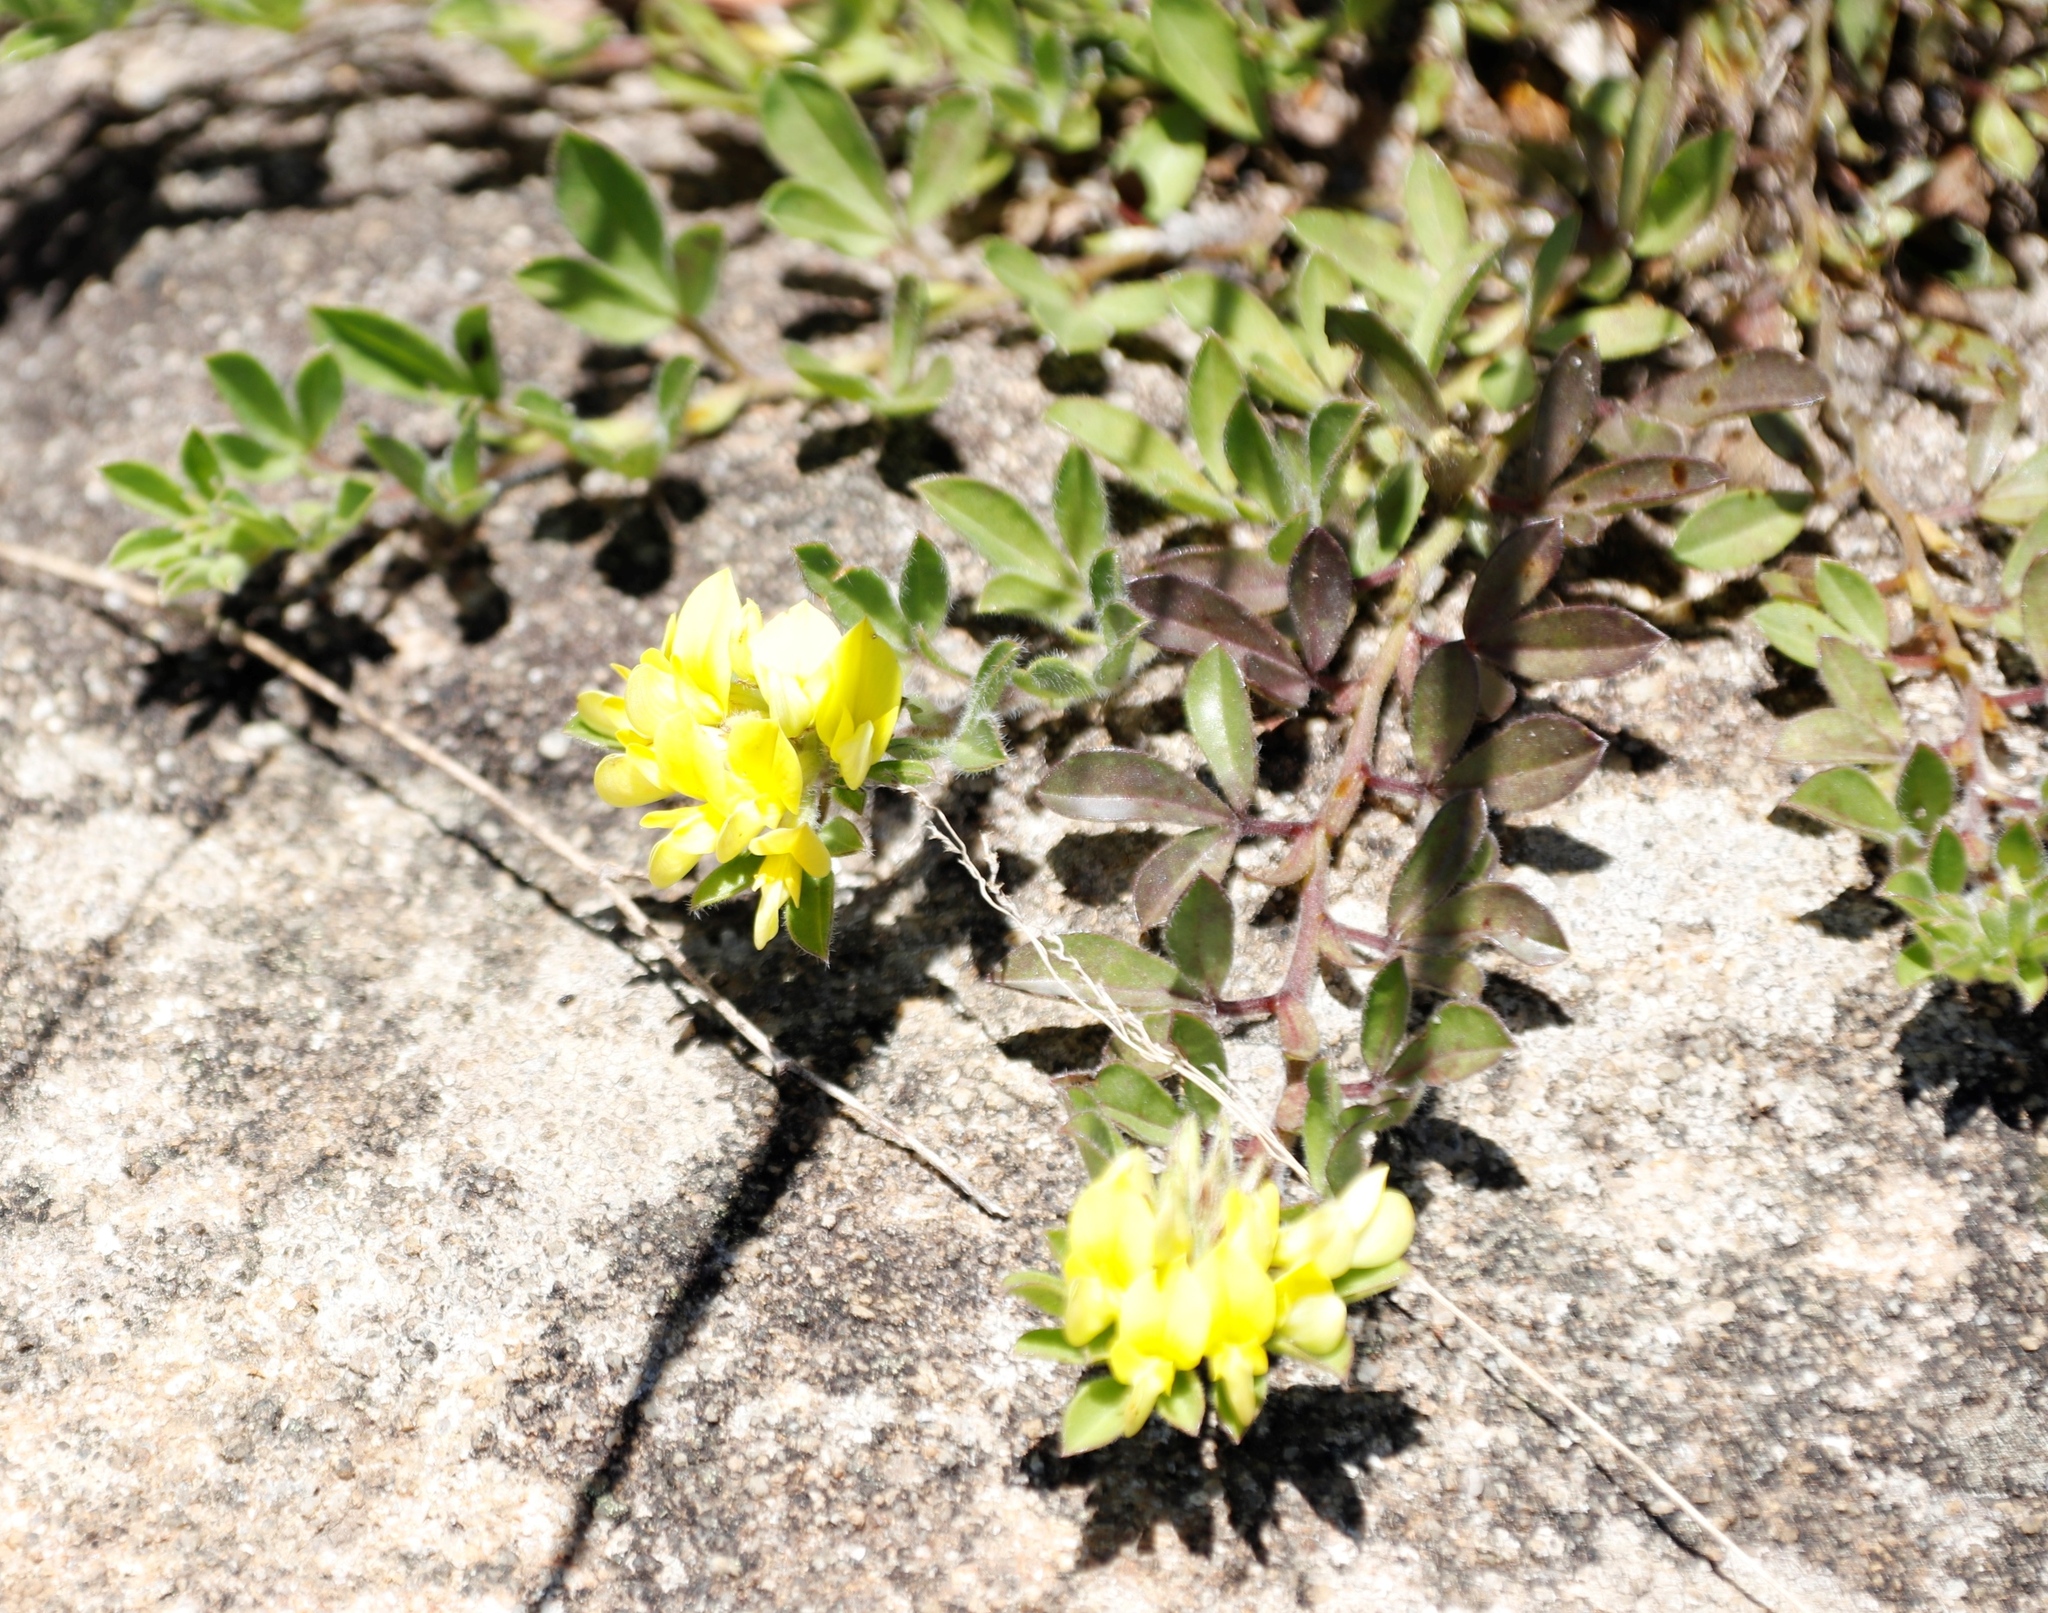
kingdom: Plantae
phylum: Tracheophyta
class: Magnoliopsida
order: Fabales
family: Fabaceae
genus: Leobordea
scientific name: Leobordea procumbens
